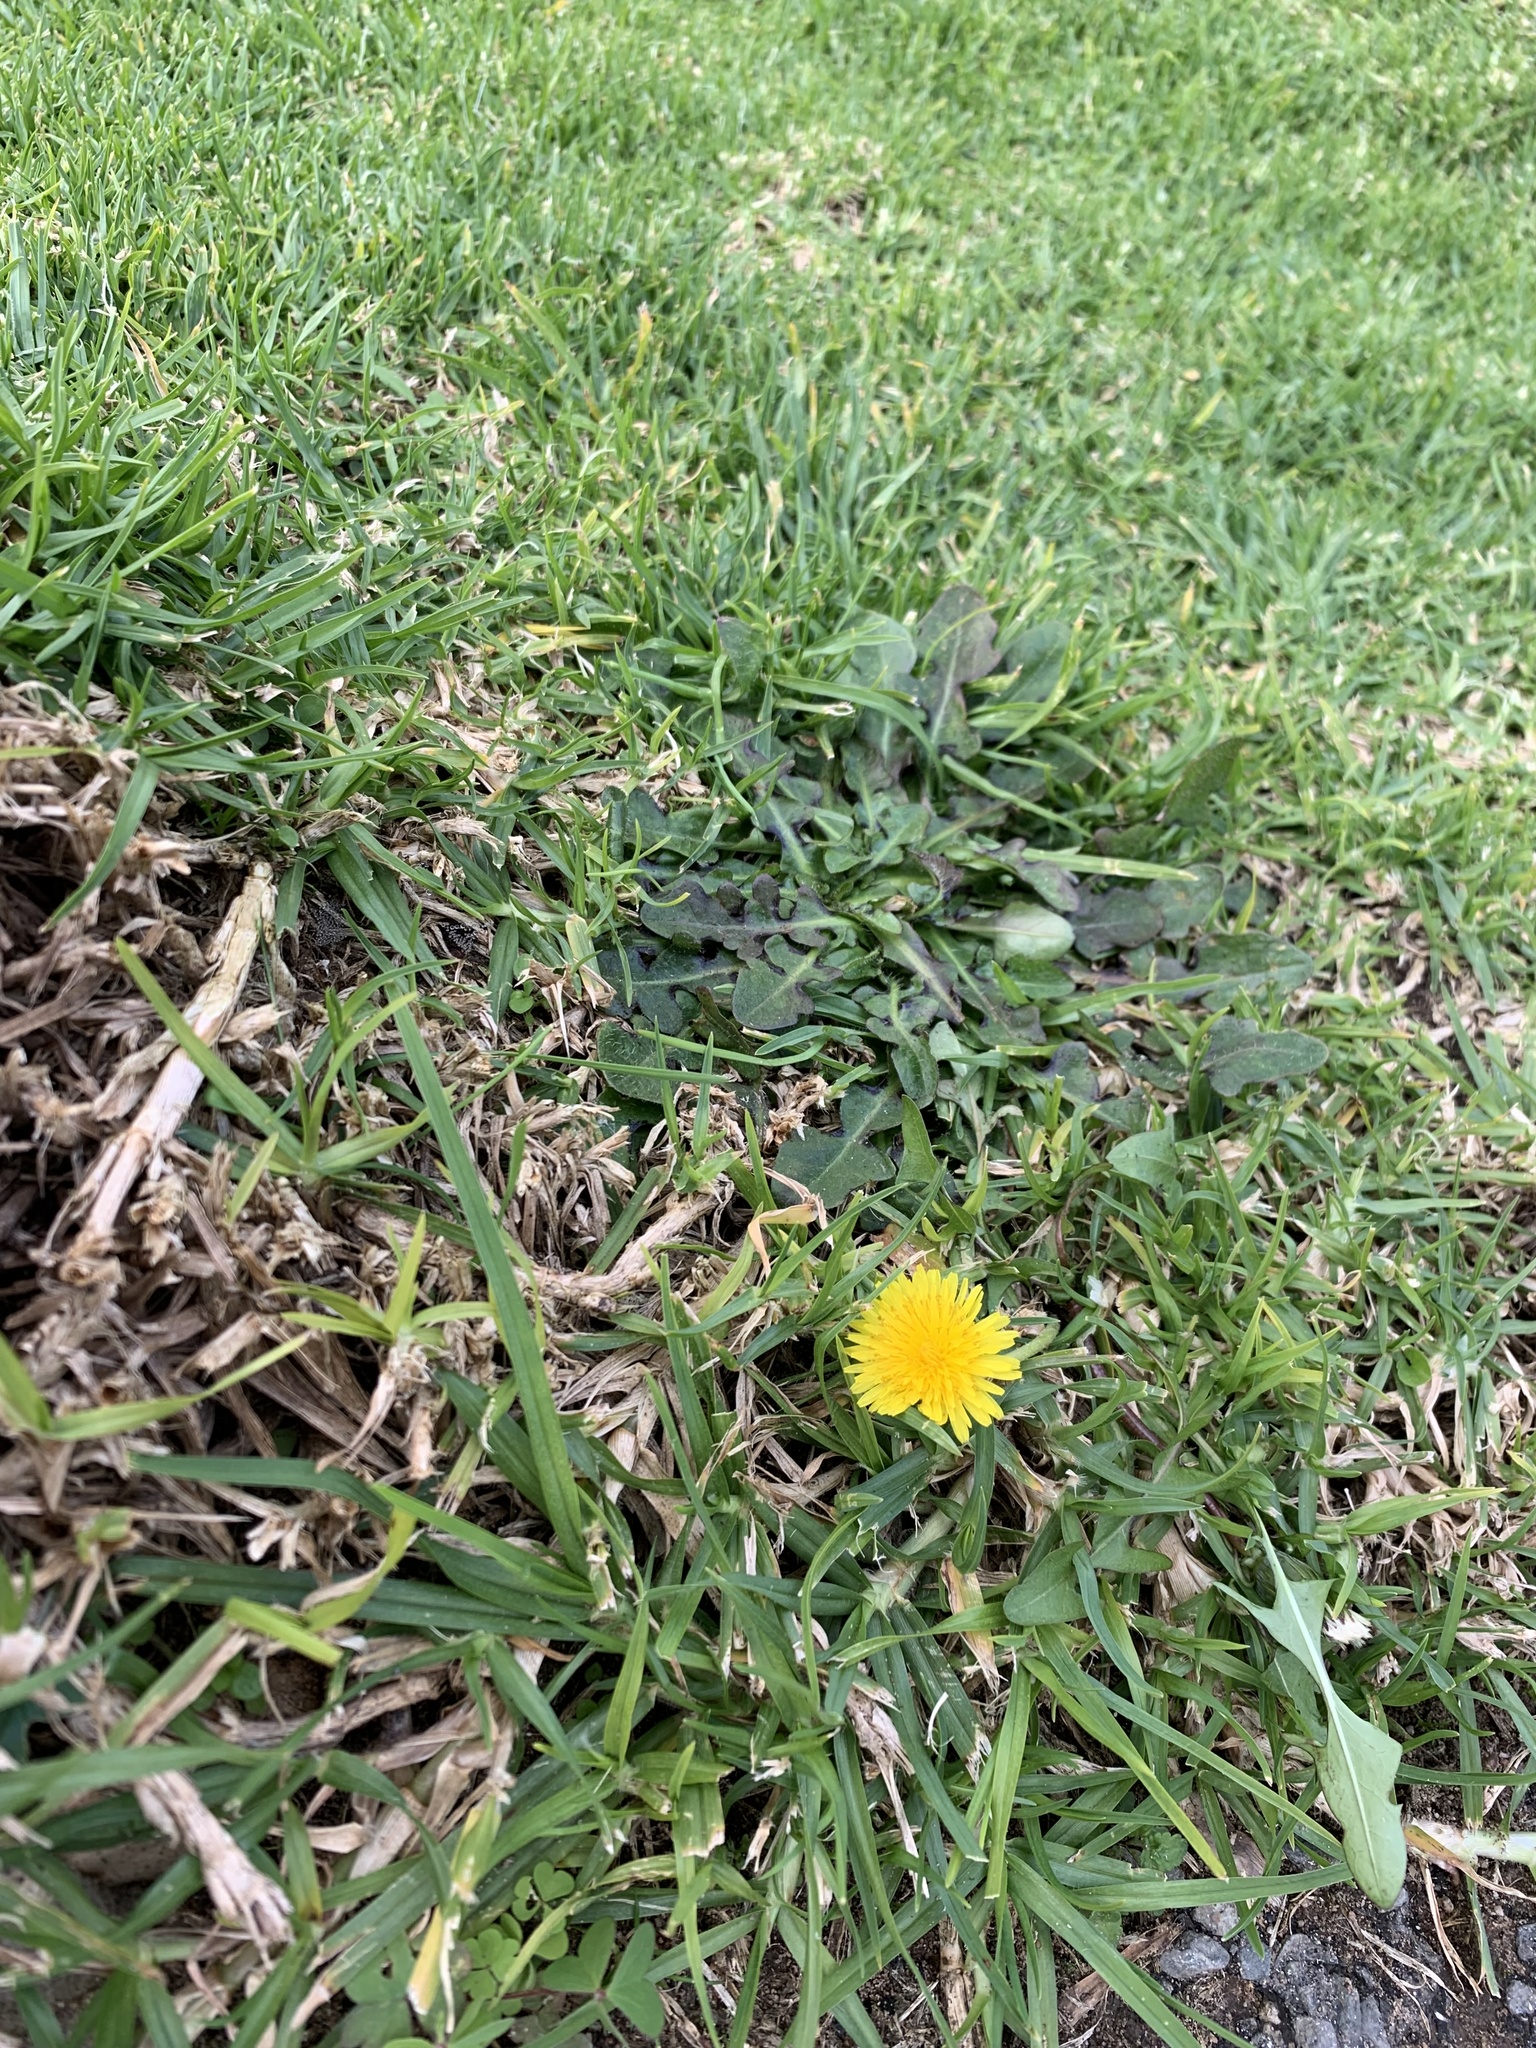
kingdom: Plantae
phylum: Tracheophyta
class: Magnoliopsida
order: Asterales
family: Asteraceae
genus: Taraxacum
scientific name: Taraxacum officinale
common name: Common dandelion
